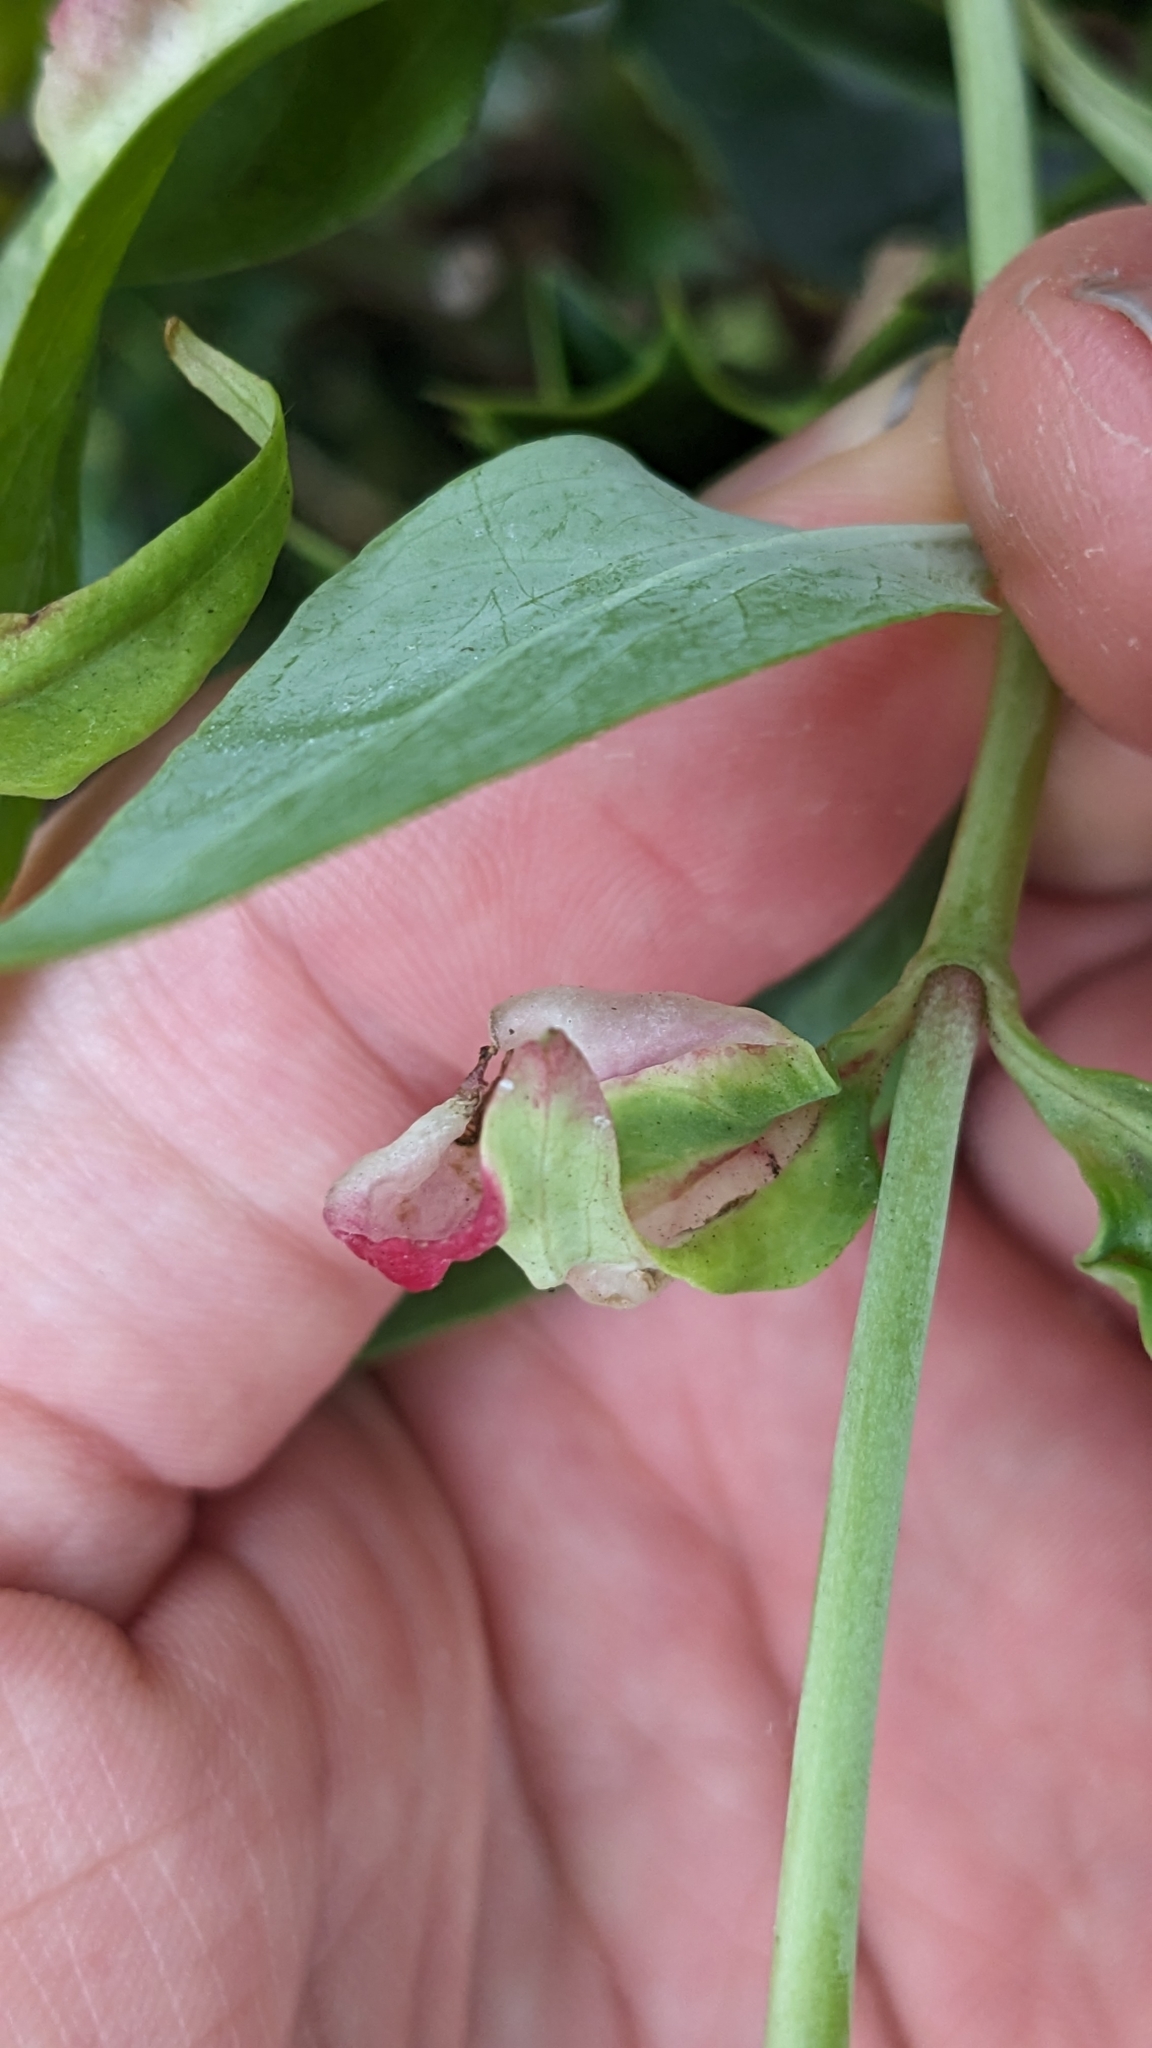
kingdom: Animalia
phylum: Arthropoda
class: Insecta
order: Hemiptera
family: Triozidae
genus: Trioza
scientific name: Trioza centranthi
